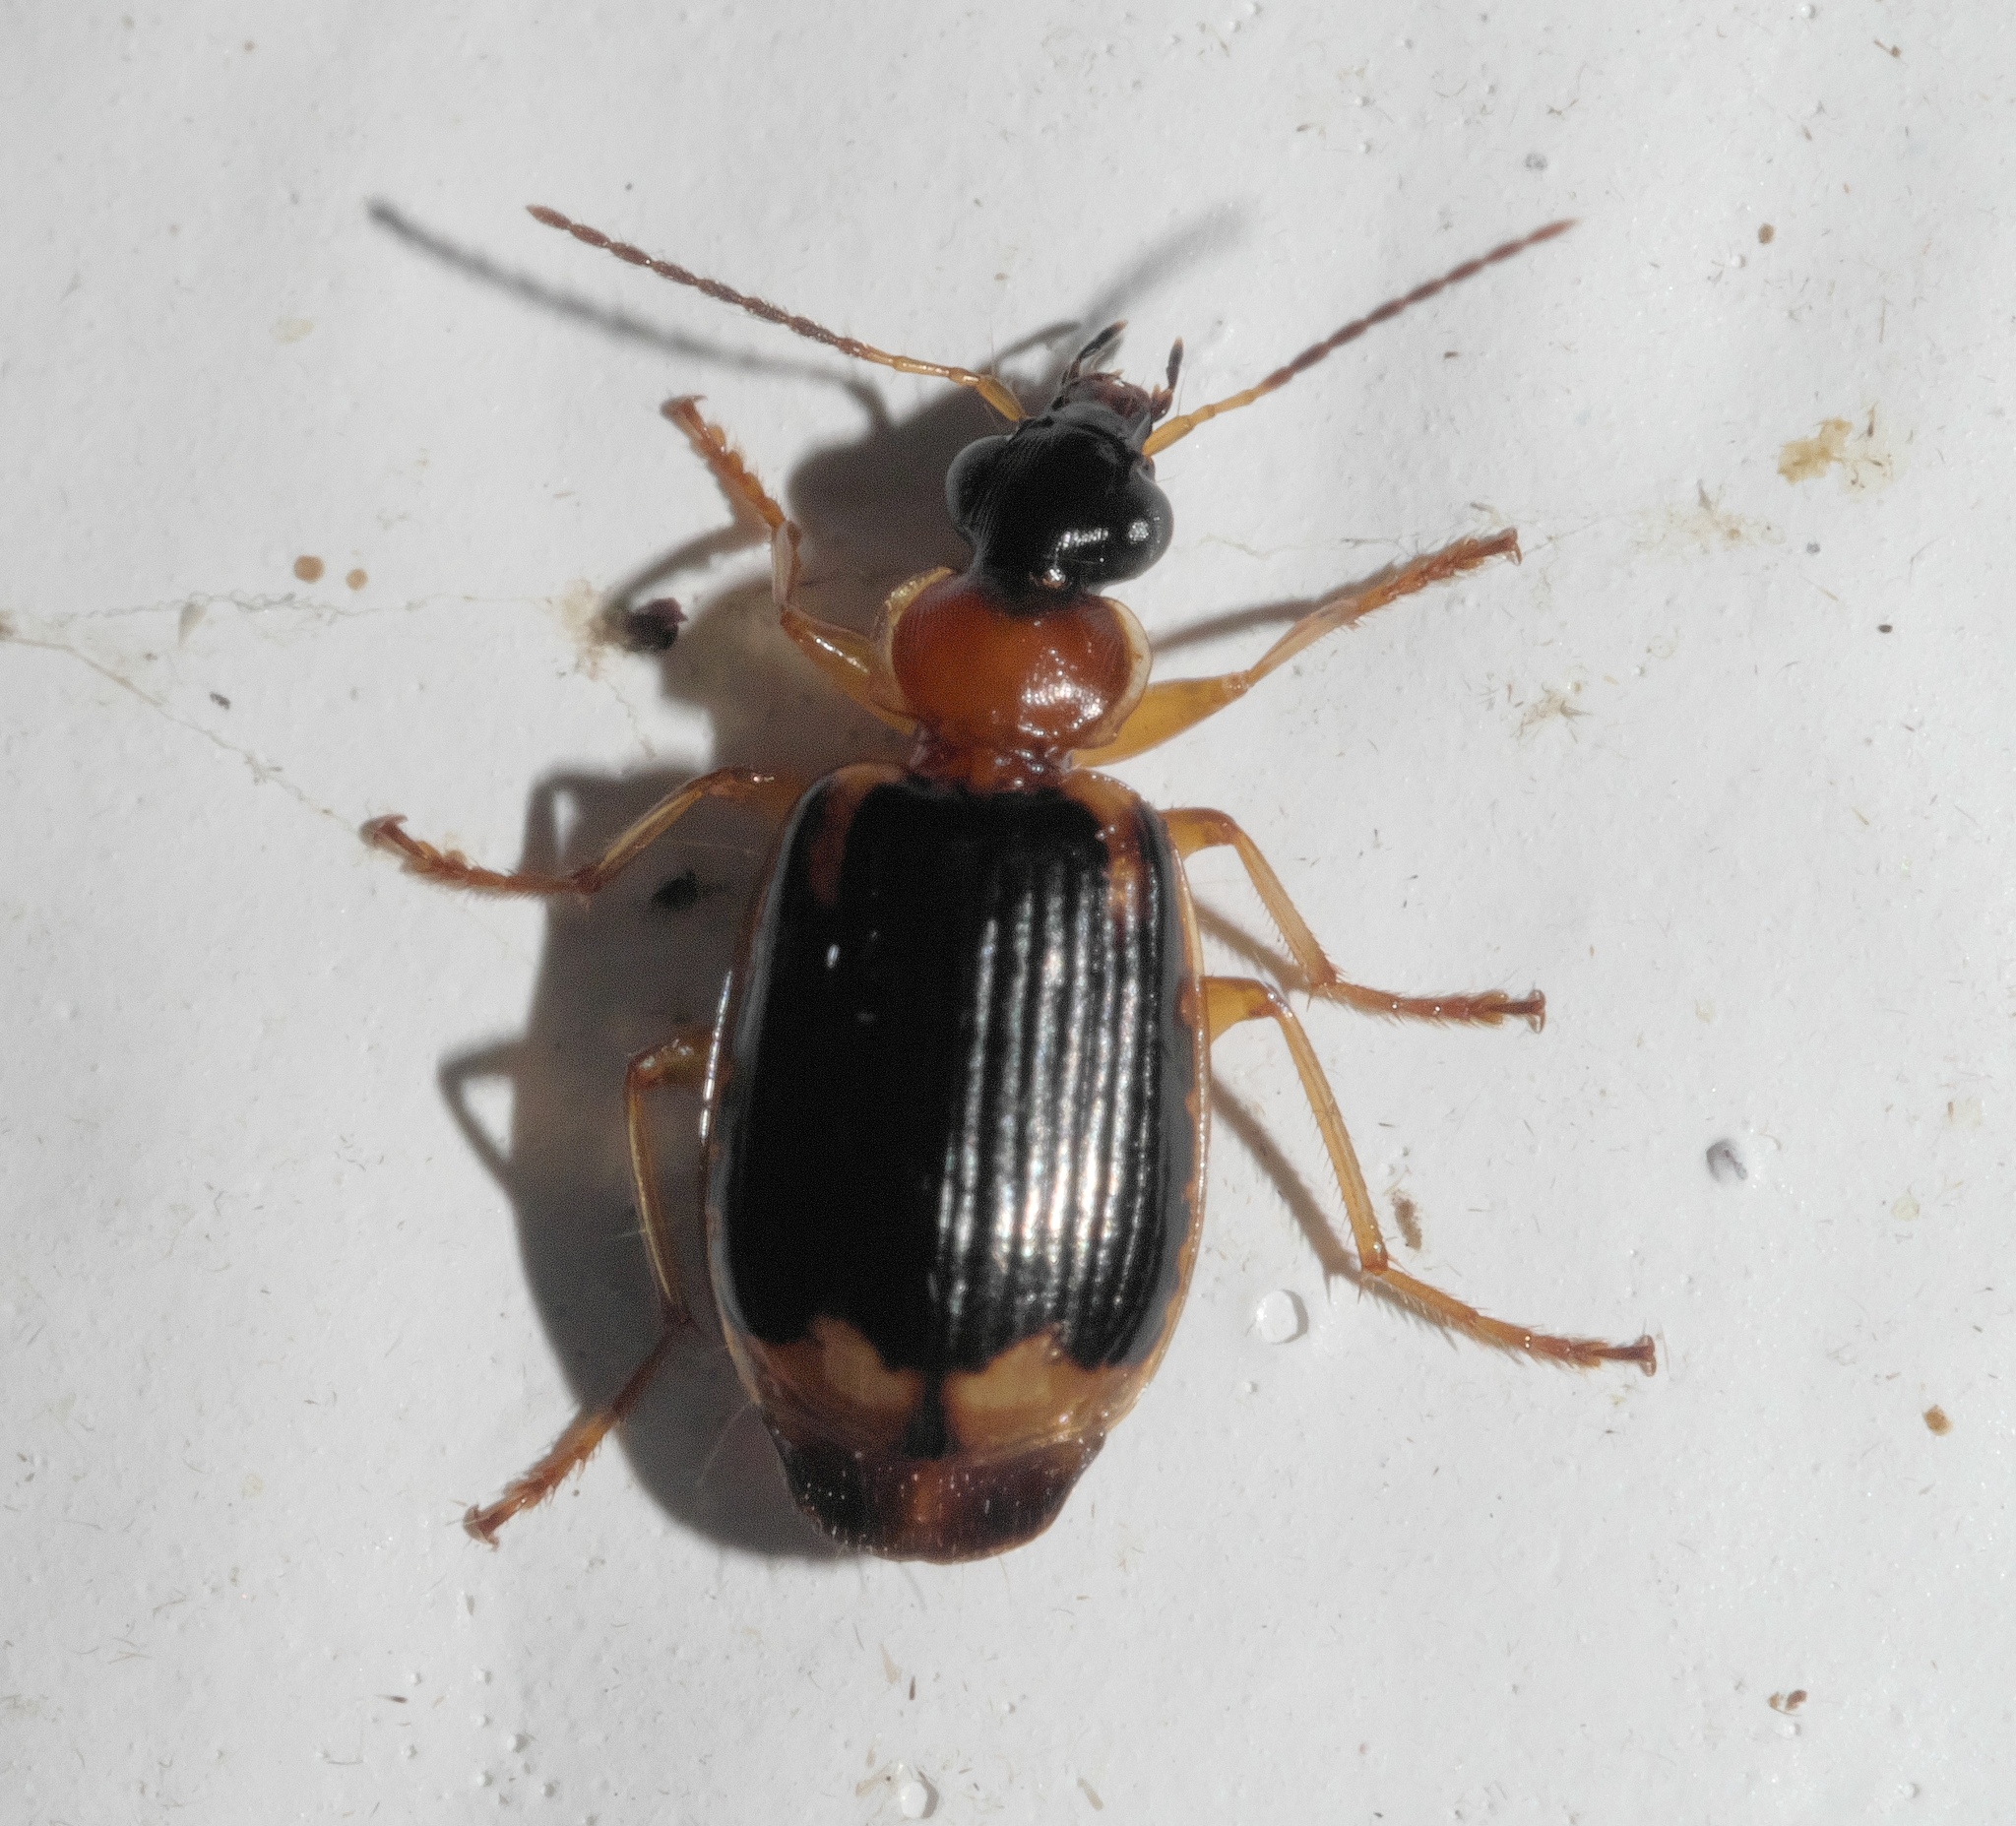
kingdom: Animalia
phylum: Arthropoda
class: Insecta
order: Coleoptera
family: Carabidae
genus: Lebia
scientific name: Lebia analis
